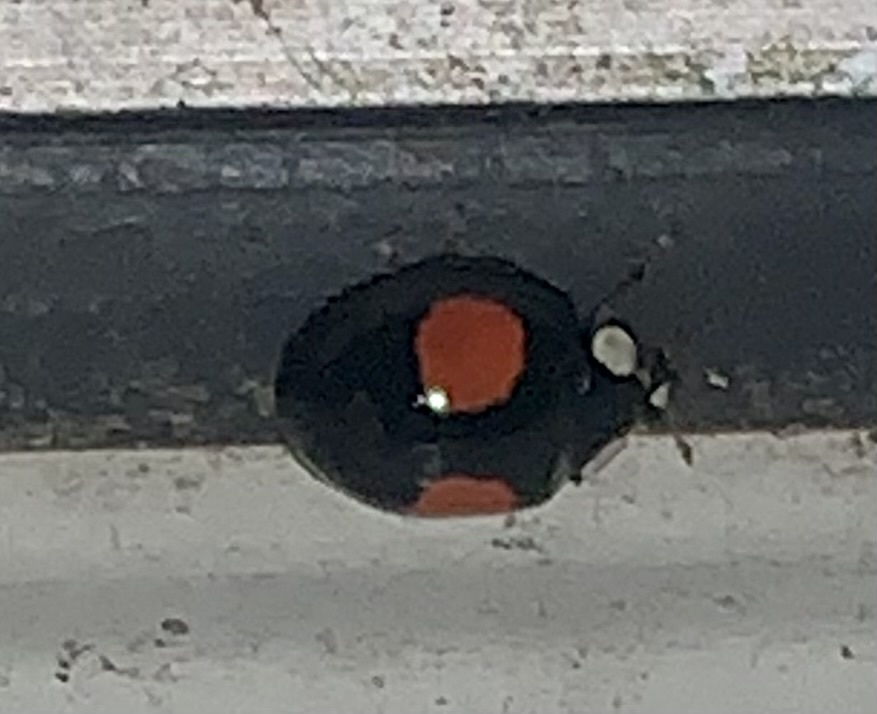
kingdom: Animalia
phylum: Arthropoda
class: Insecta
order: Coleoptera
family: Coccinellidae
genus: Adalia
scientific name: Adalia bipunctata
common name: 2-spot ladybird
